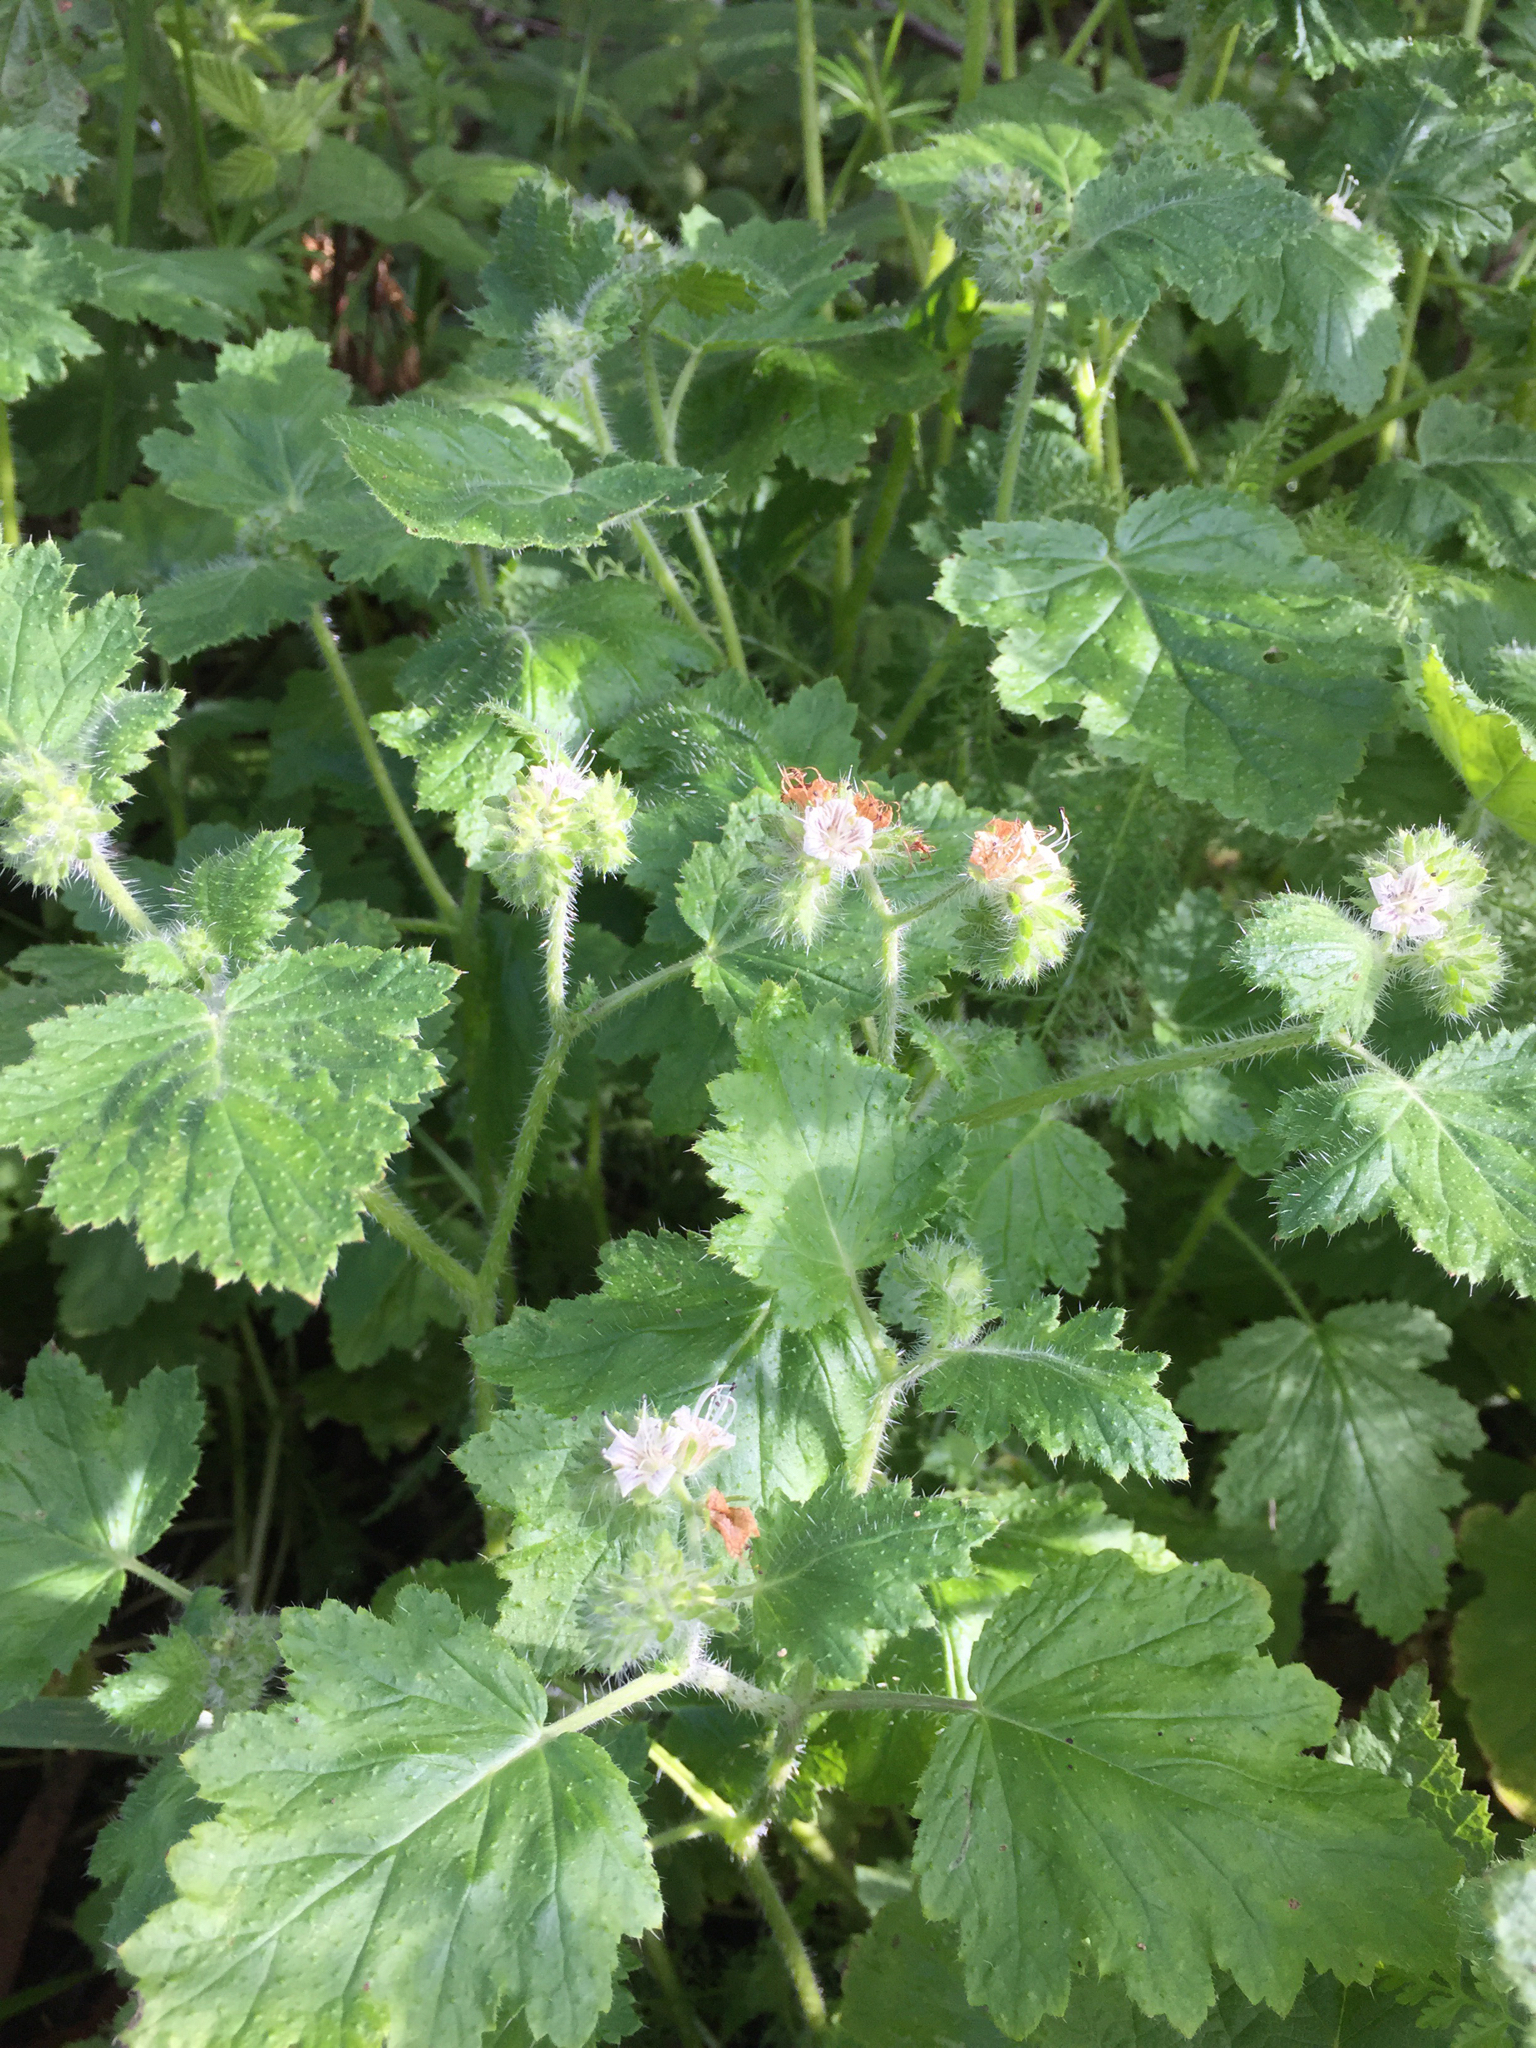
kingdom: Plantae
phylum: Tracheophyta
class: Magnoliopsida
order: Boraginales
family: Hydrophyllaceae
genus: Phacelia
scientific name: Phacelia malvifolia
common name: Mallow-leaf phacelia
